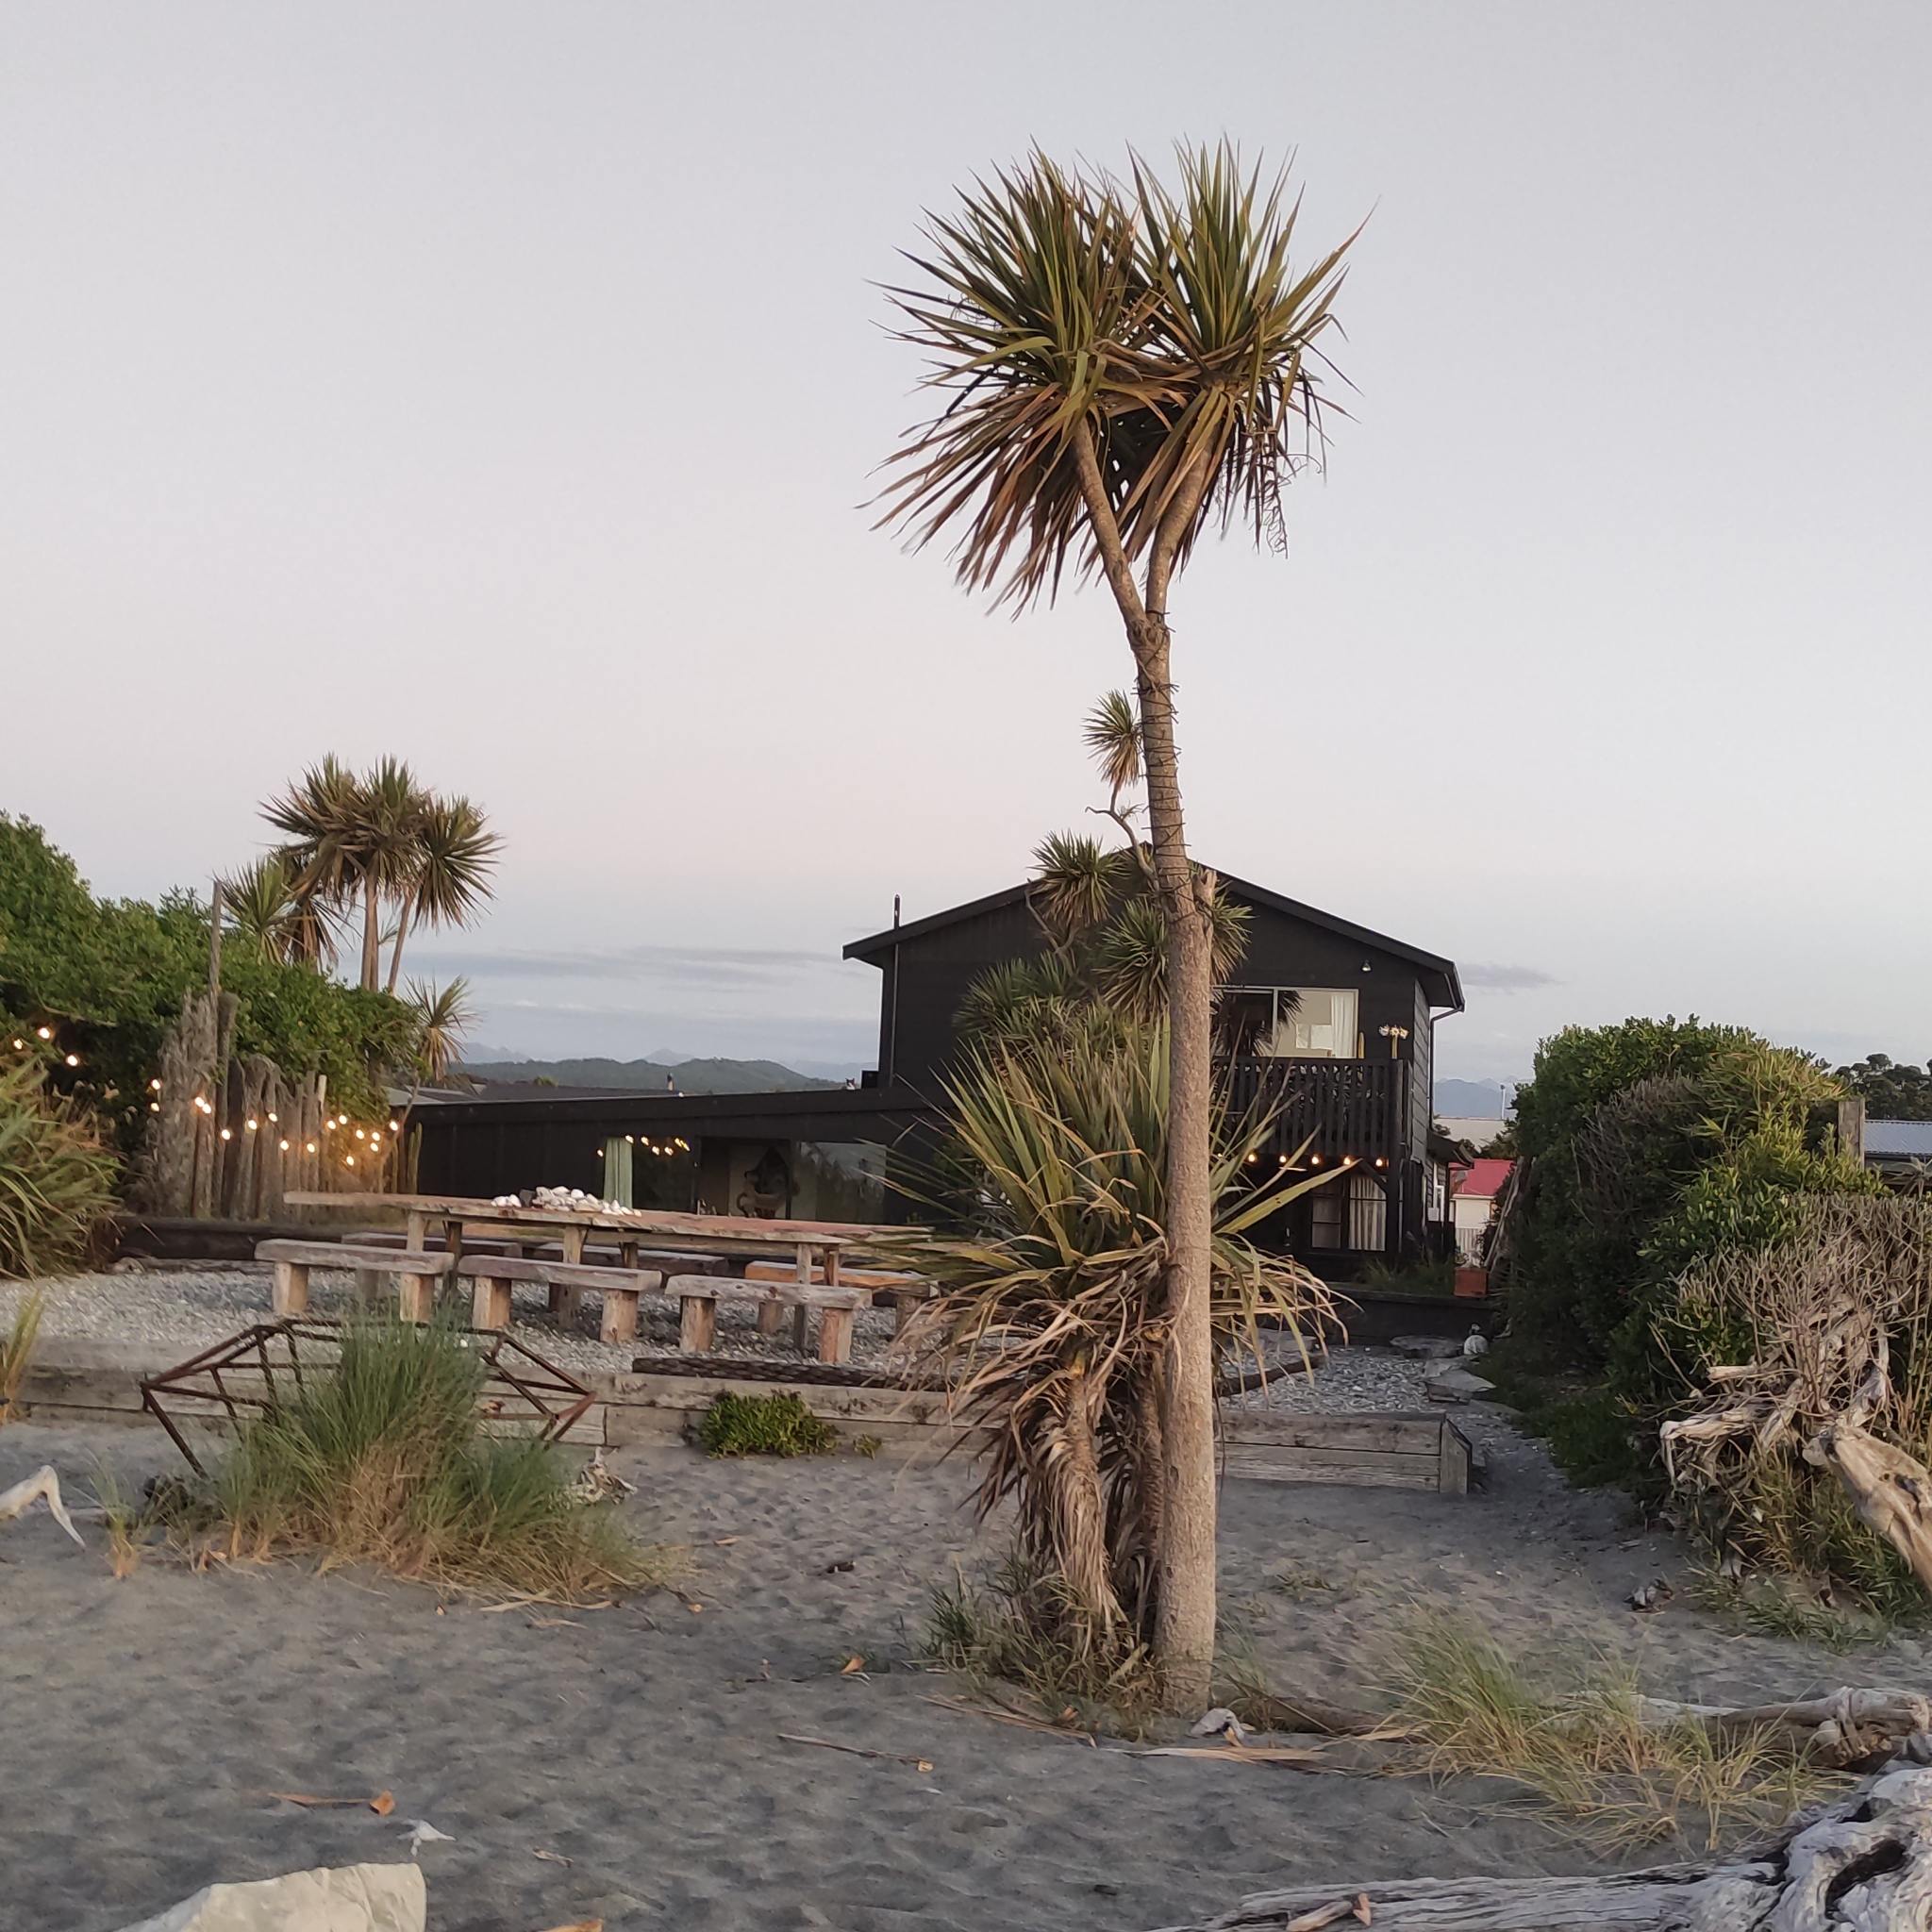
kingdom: Plantae
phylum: Tracheophyta
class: Liliopsida
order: Asparagales
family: Asparagaceae
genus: Cordyline
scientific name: Cordyline australis
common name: Cabbage-palm
